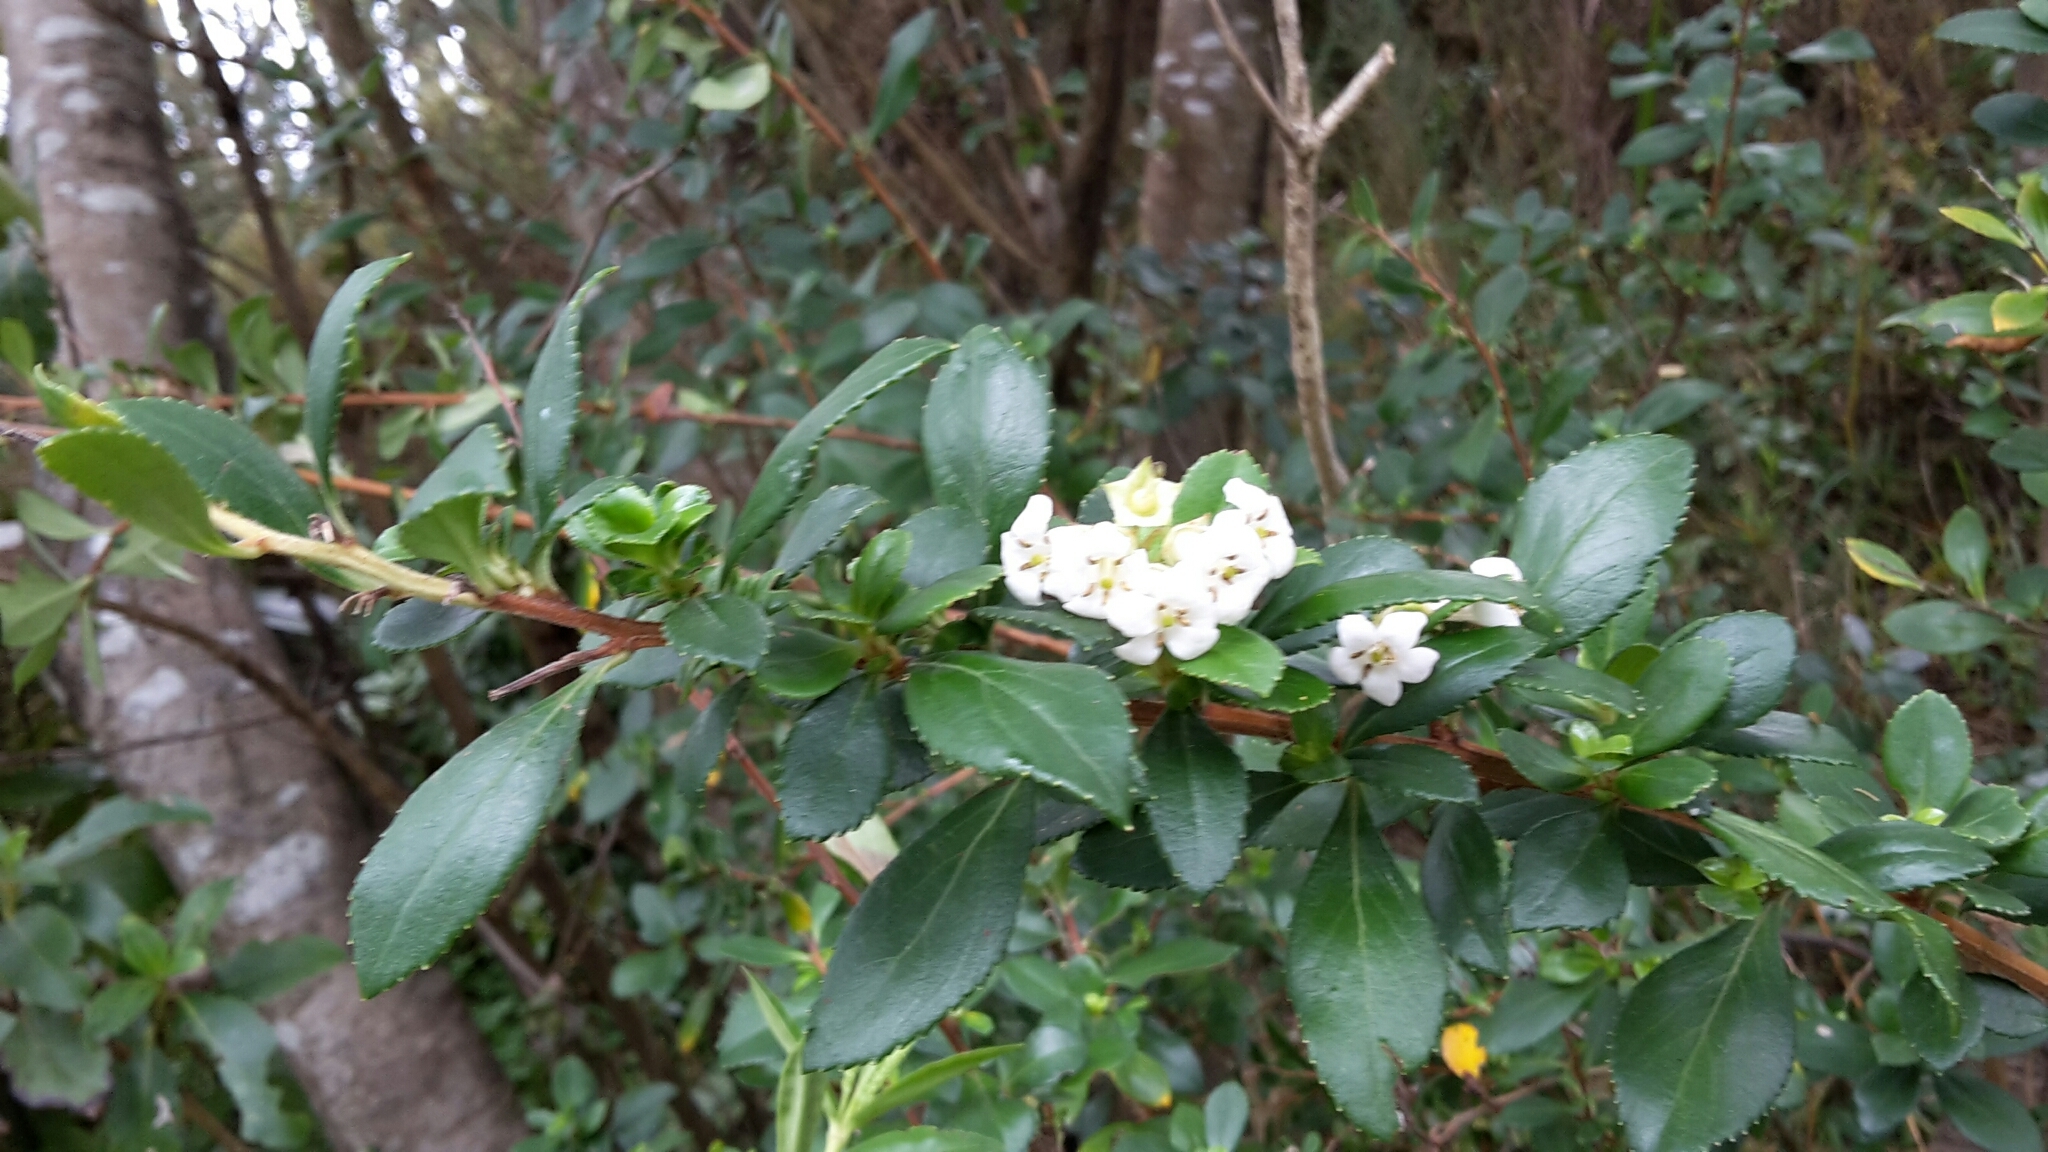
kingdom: Plantae
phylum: Tracheophyta
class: Magnoliopsida
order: Escalloniales
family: Escalloniaceae
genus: Escallonia
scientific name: Escallonia rubra
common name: Redclaws
